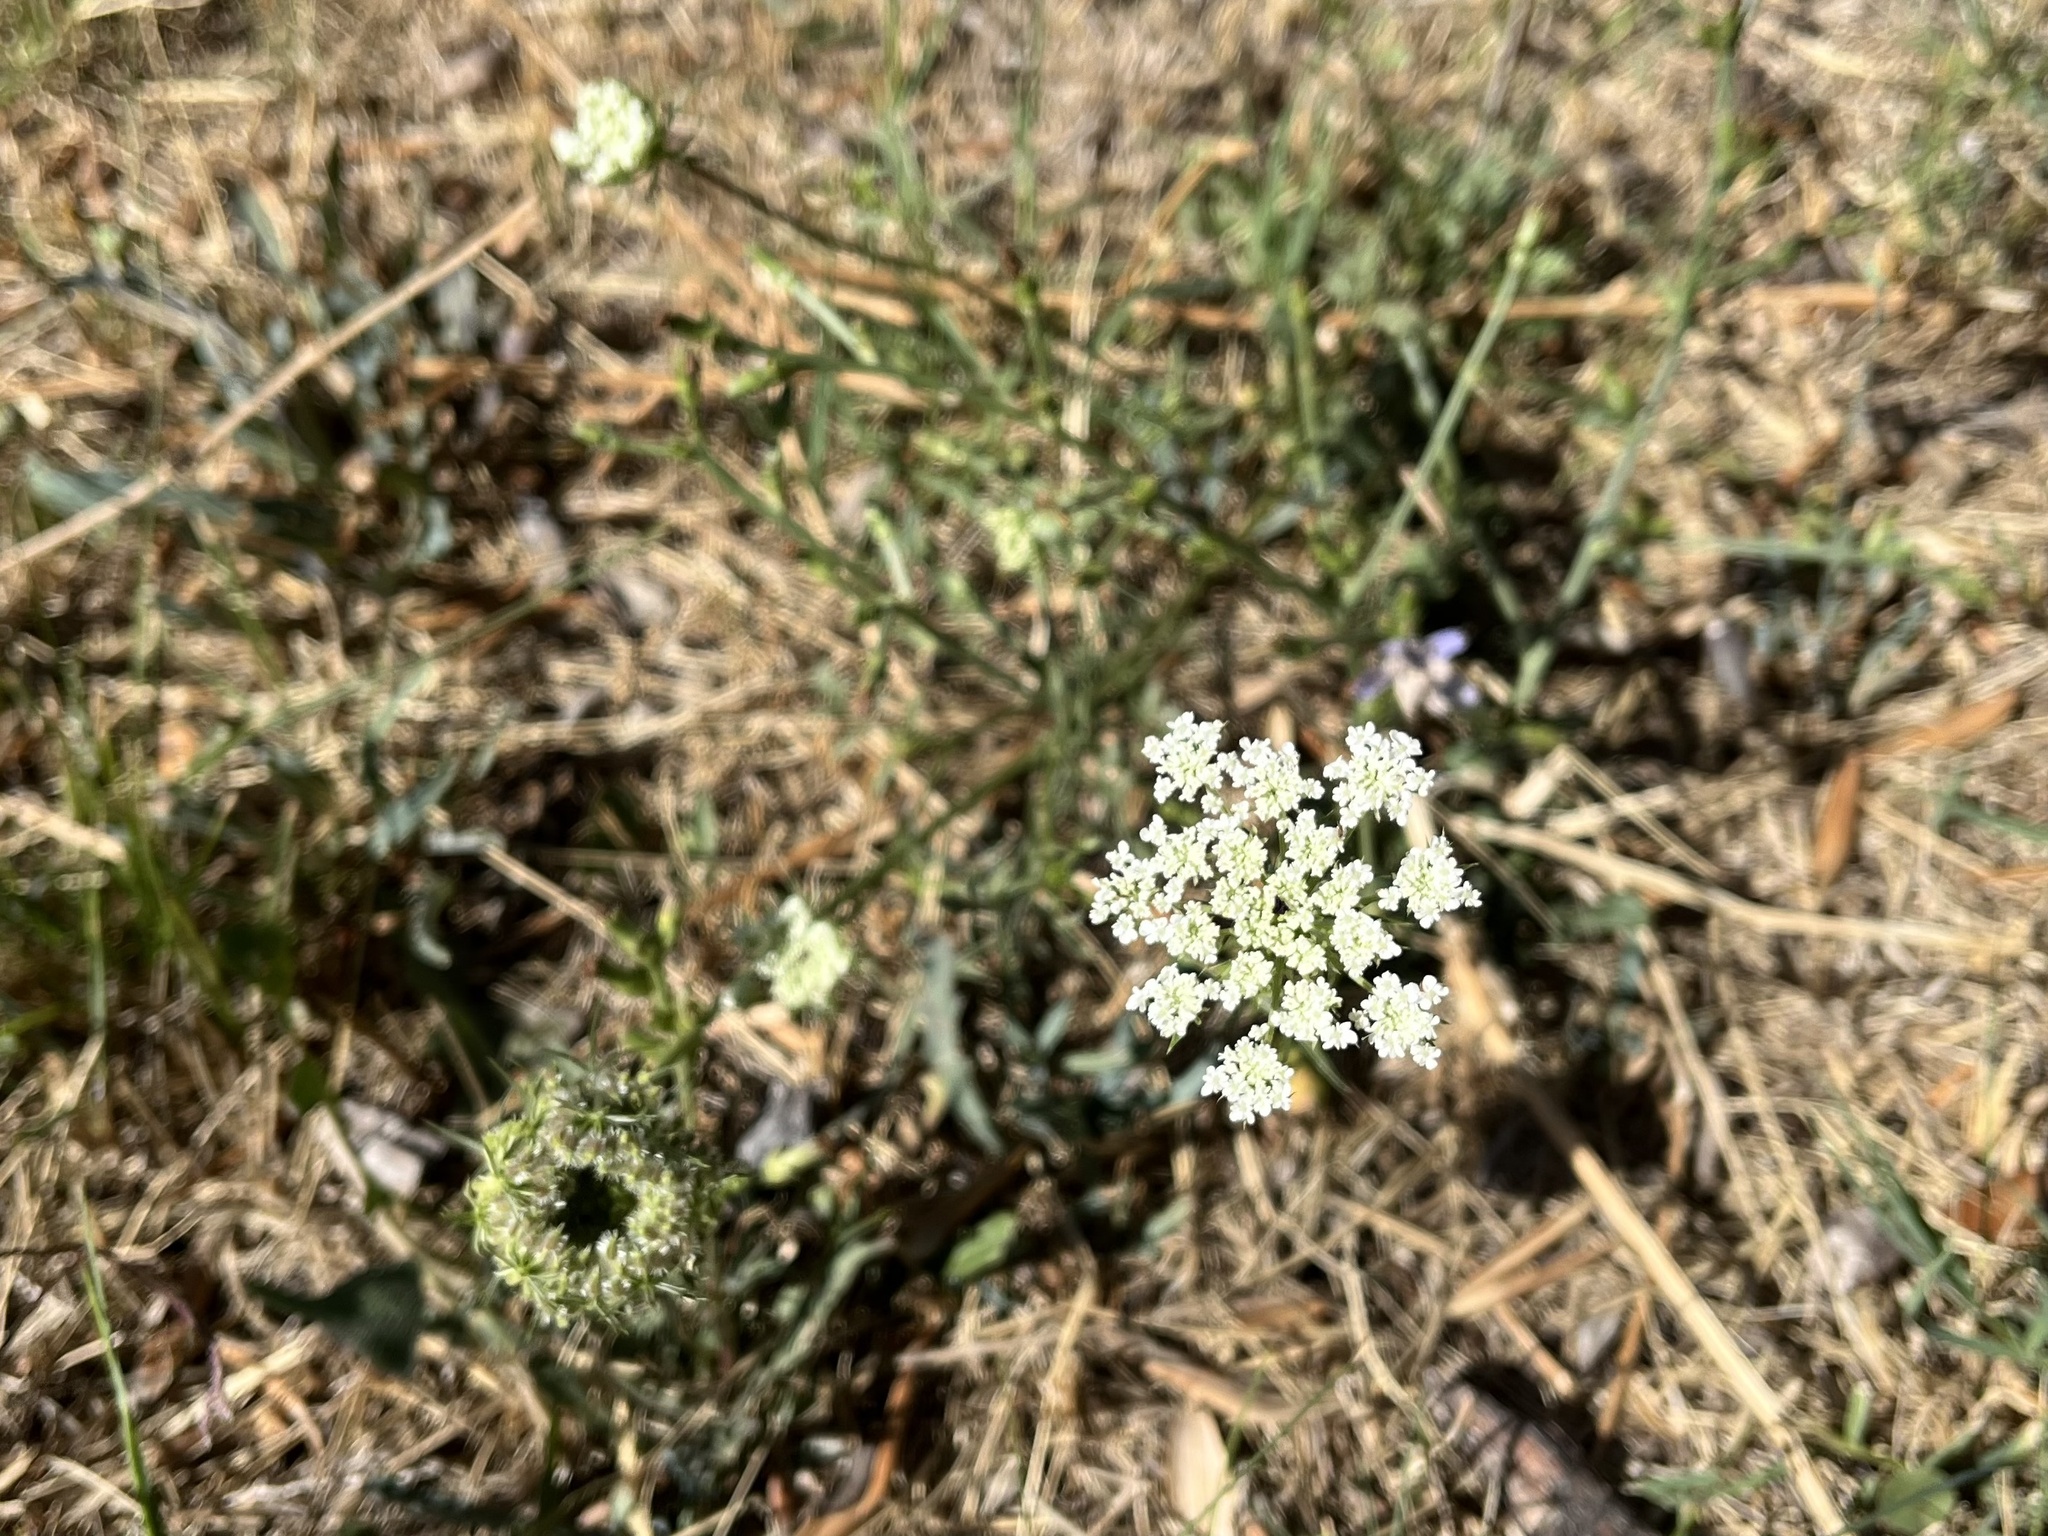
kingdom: Plantae
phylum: Tracheophyta
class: Magnoliopsida
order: Apiales
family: Apiaceae
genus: Daucus
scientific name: Daucus carota
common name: Wild carrot
